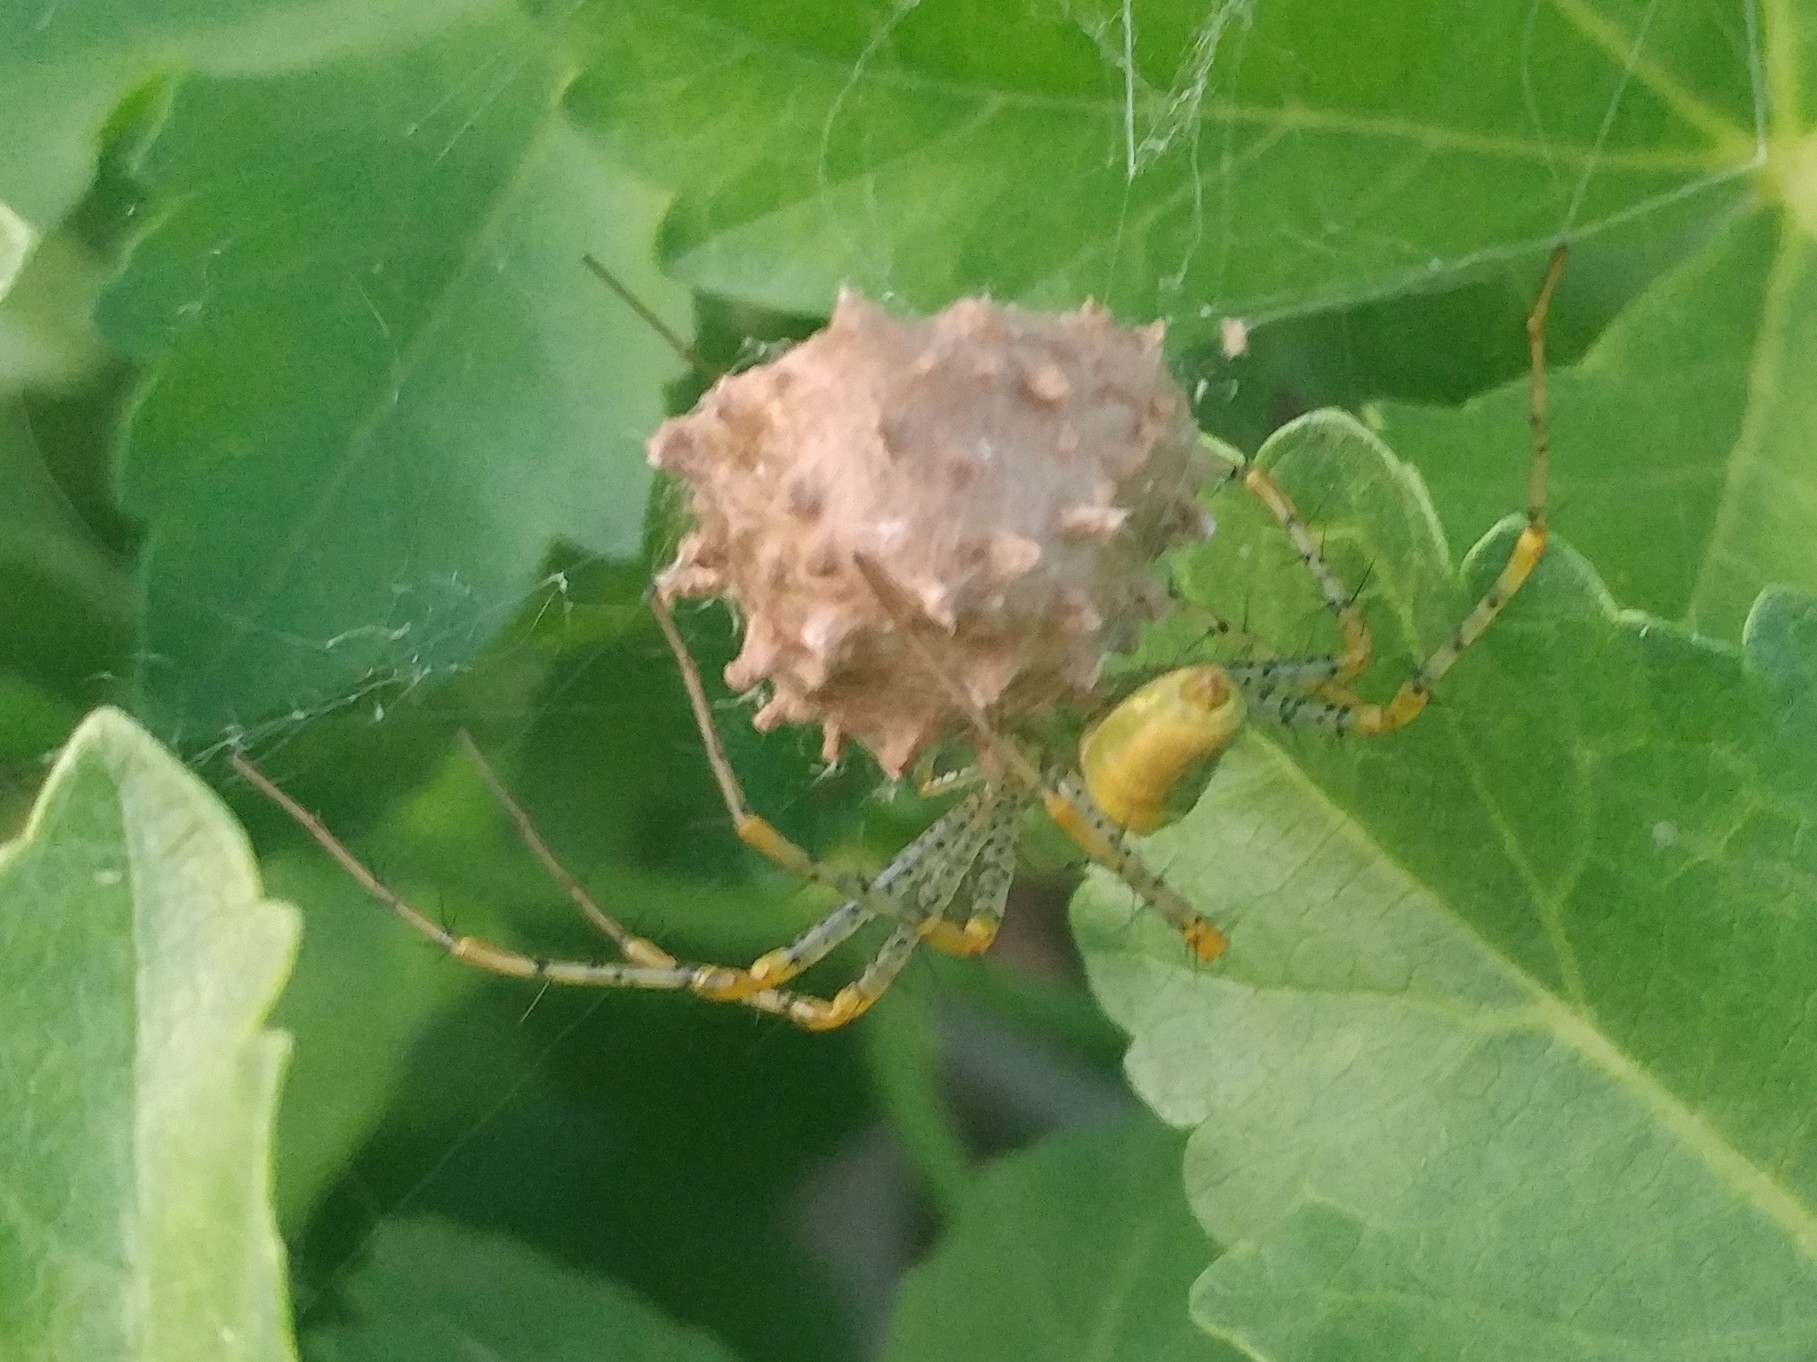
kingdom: Animalia
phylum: Arthropoda
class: Arachnida
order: Araneae
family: Oxyopidae
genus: Peucetia
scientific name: Peucetia viridans
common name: Lynx spiders
